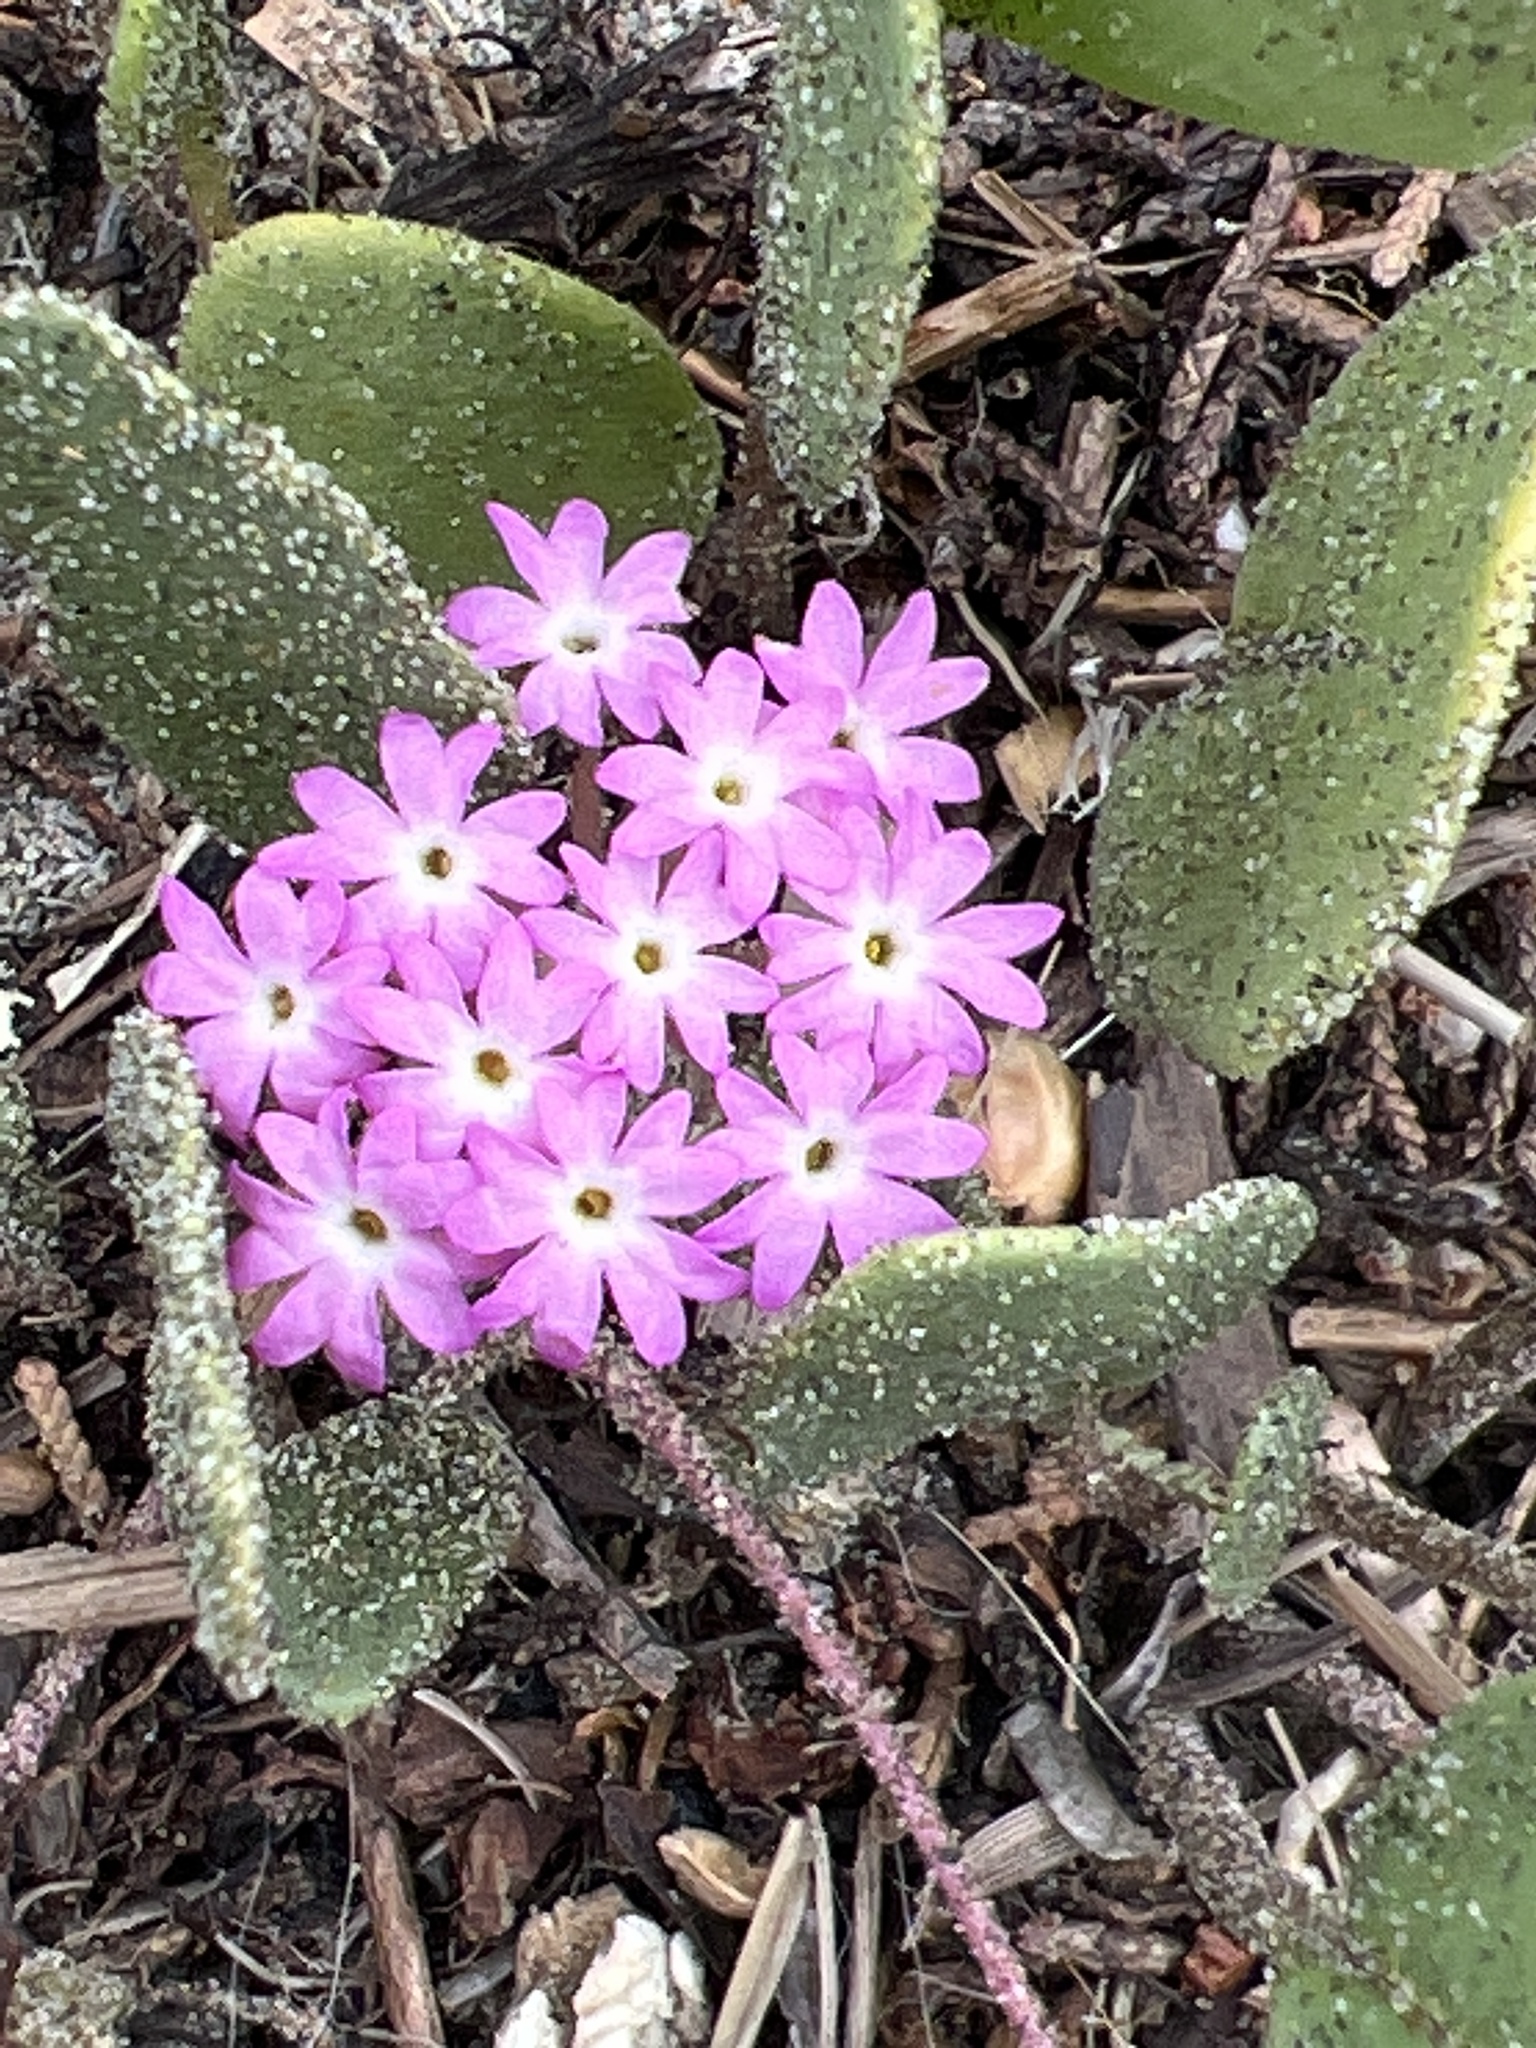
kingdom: Plantae
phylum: Tracheophyta
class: Magnoliopsida
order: Caryophyllales
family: Nyctaginaceae
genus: Abronia
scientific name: Abronia umbellata
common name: Sand-verbena
